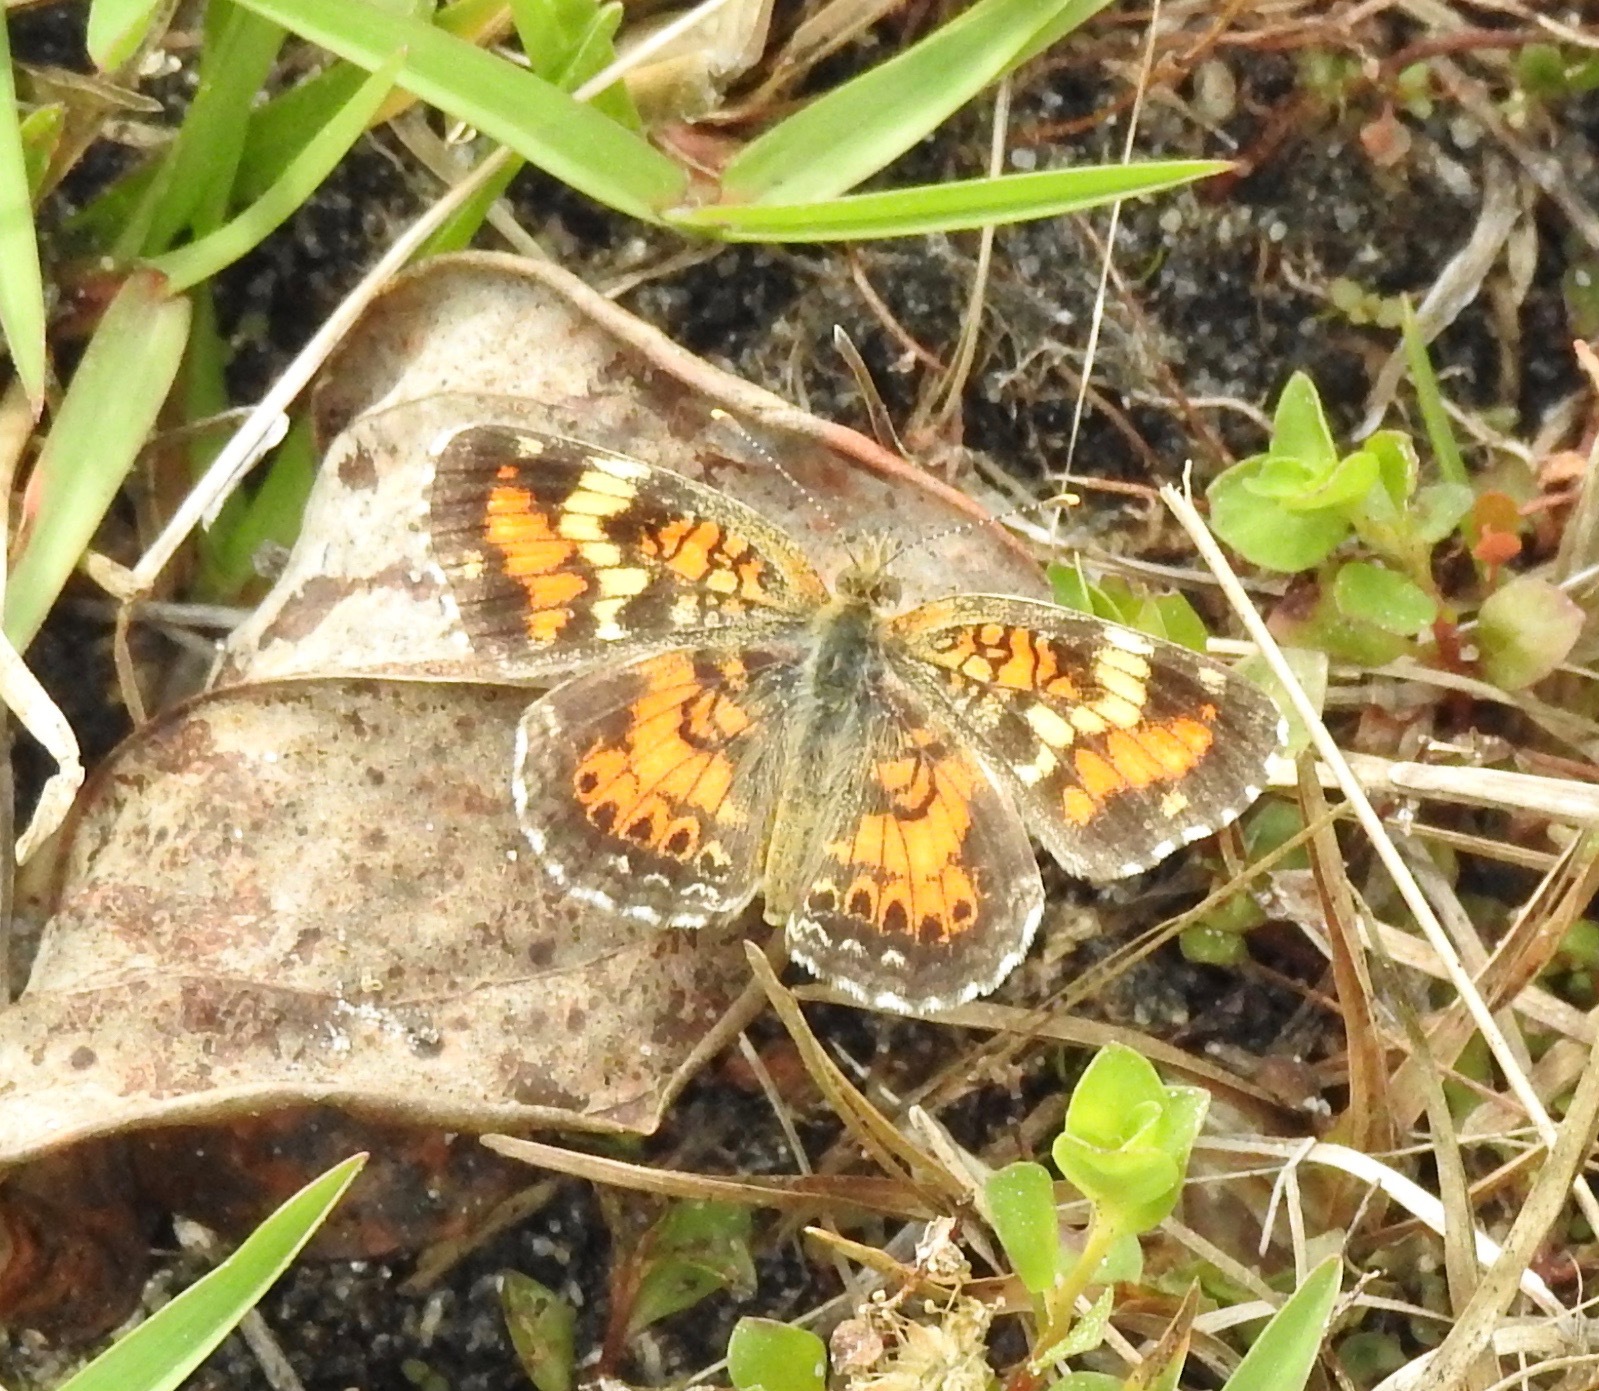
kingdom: Animalia
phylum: Arthropoda
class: Insecta
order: Lepidoptera
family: Nymphalidae
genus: Phyciodes
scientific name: Phyciodes phaon
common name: Phaon crescent
